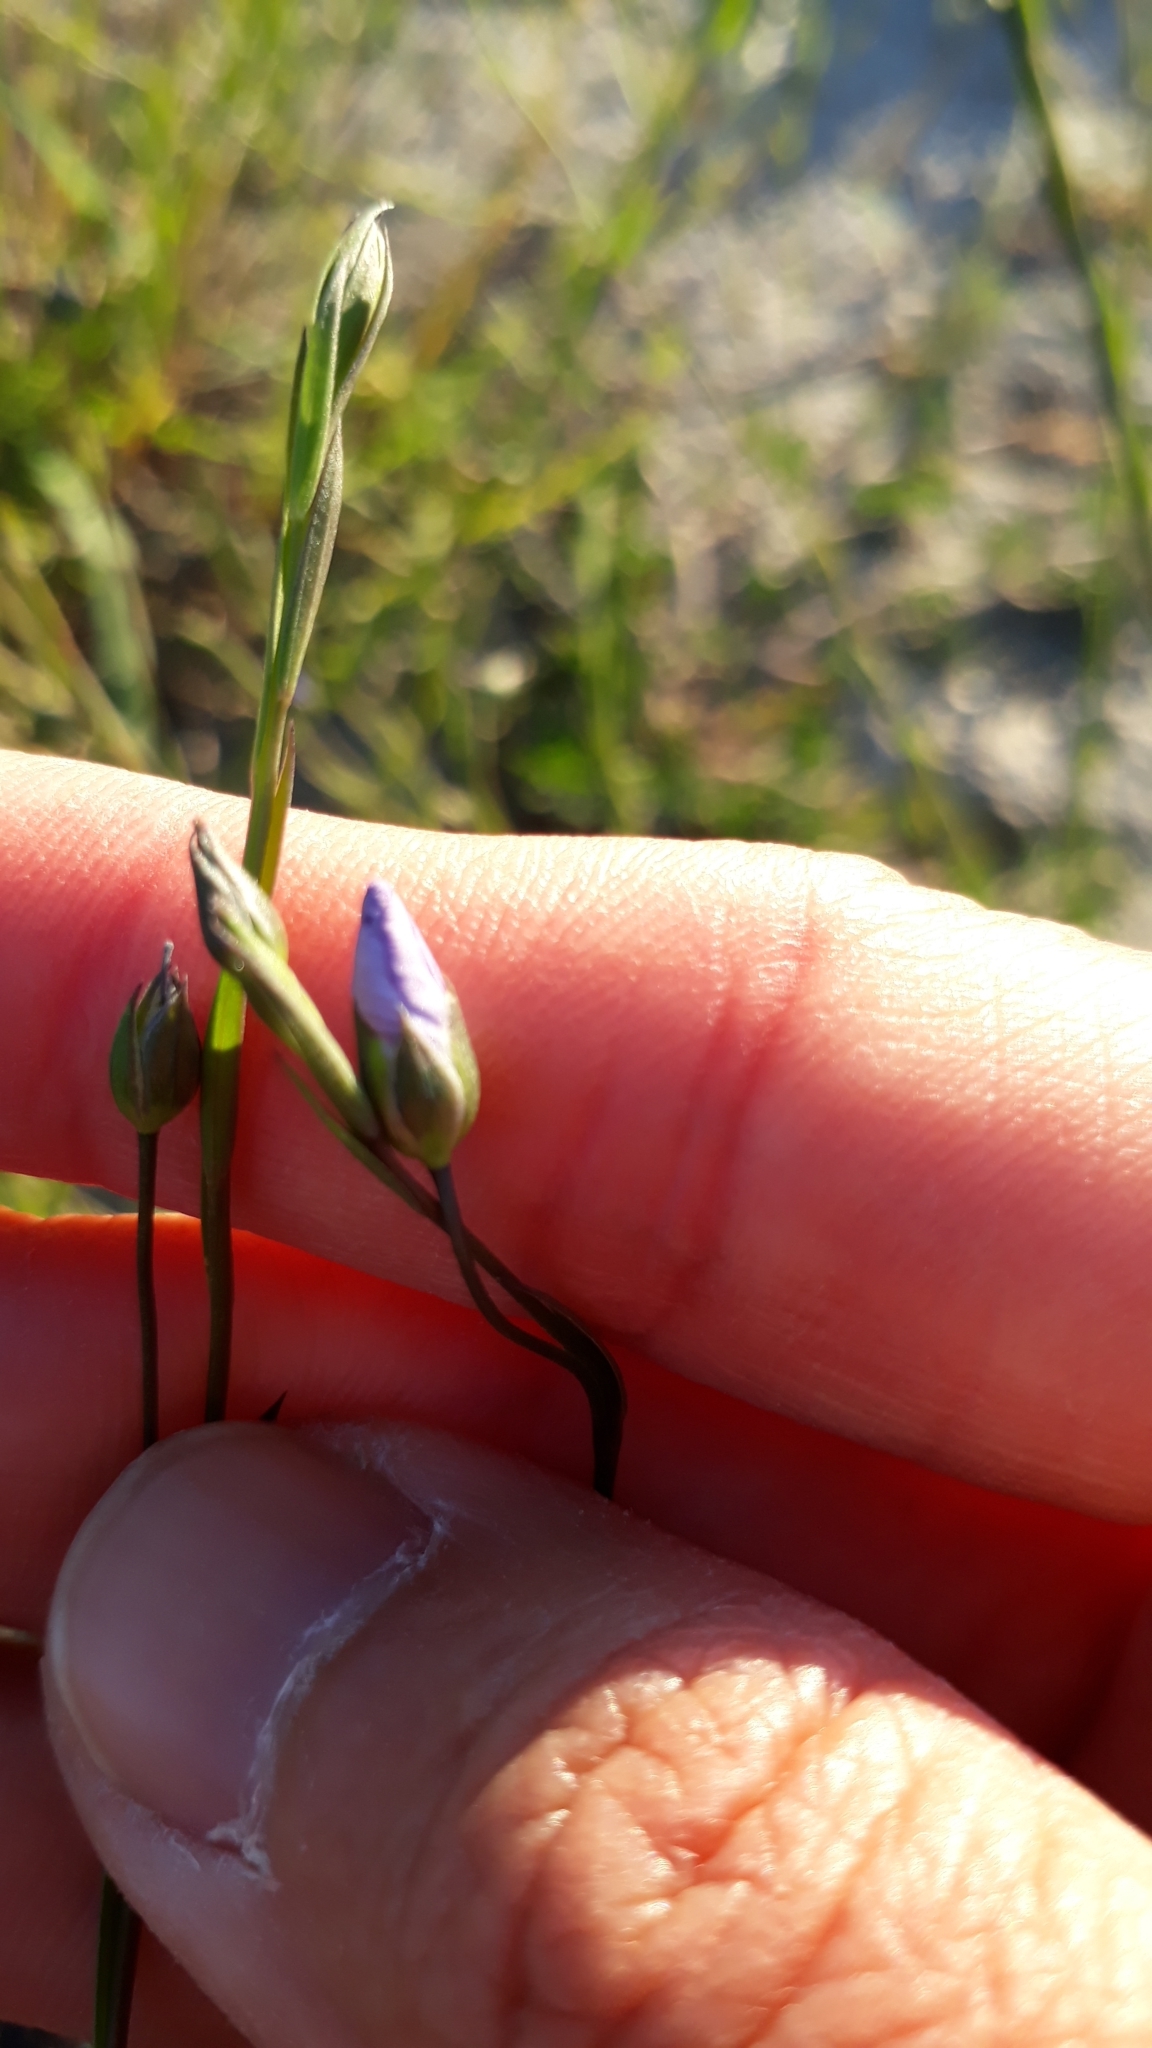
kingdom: Plantae
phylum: Tracheophyta
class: Magnoliopsida
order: Malpighiales
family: Linaceae
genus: Linum
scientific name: Linum bienne
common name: Pale flax
